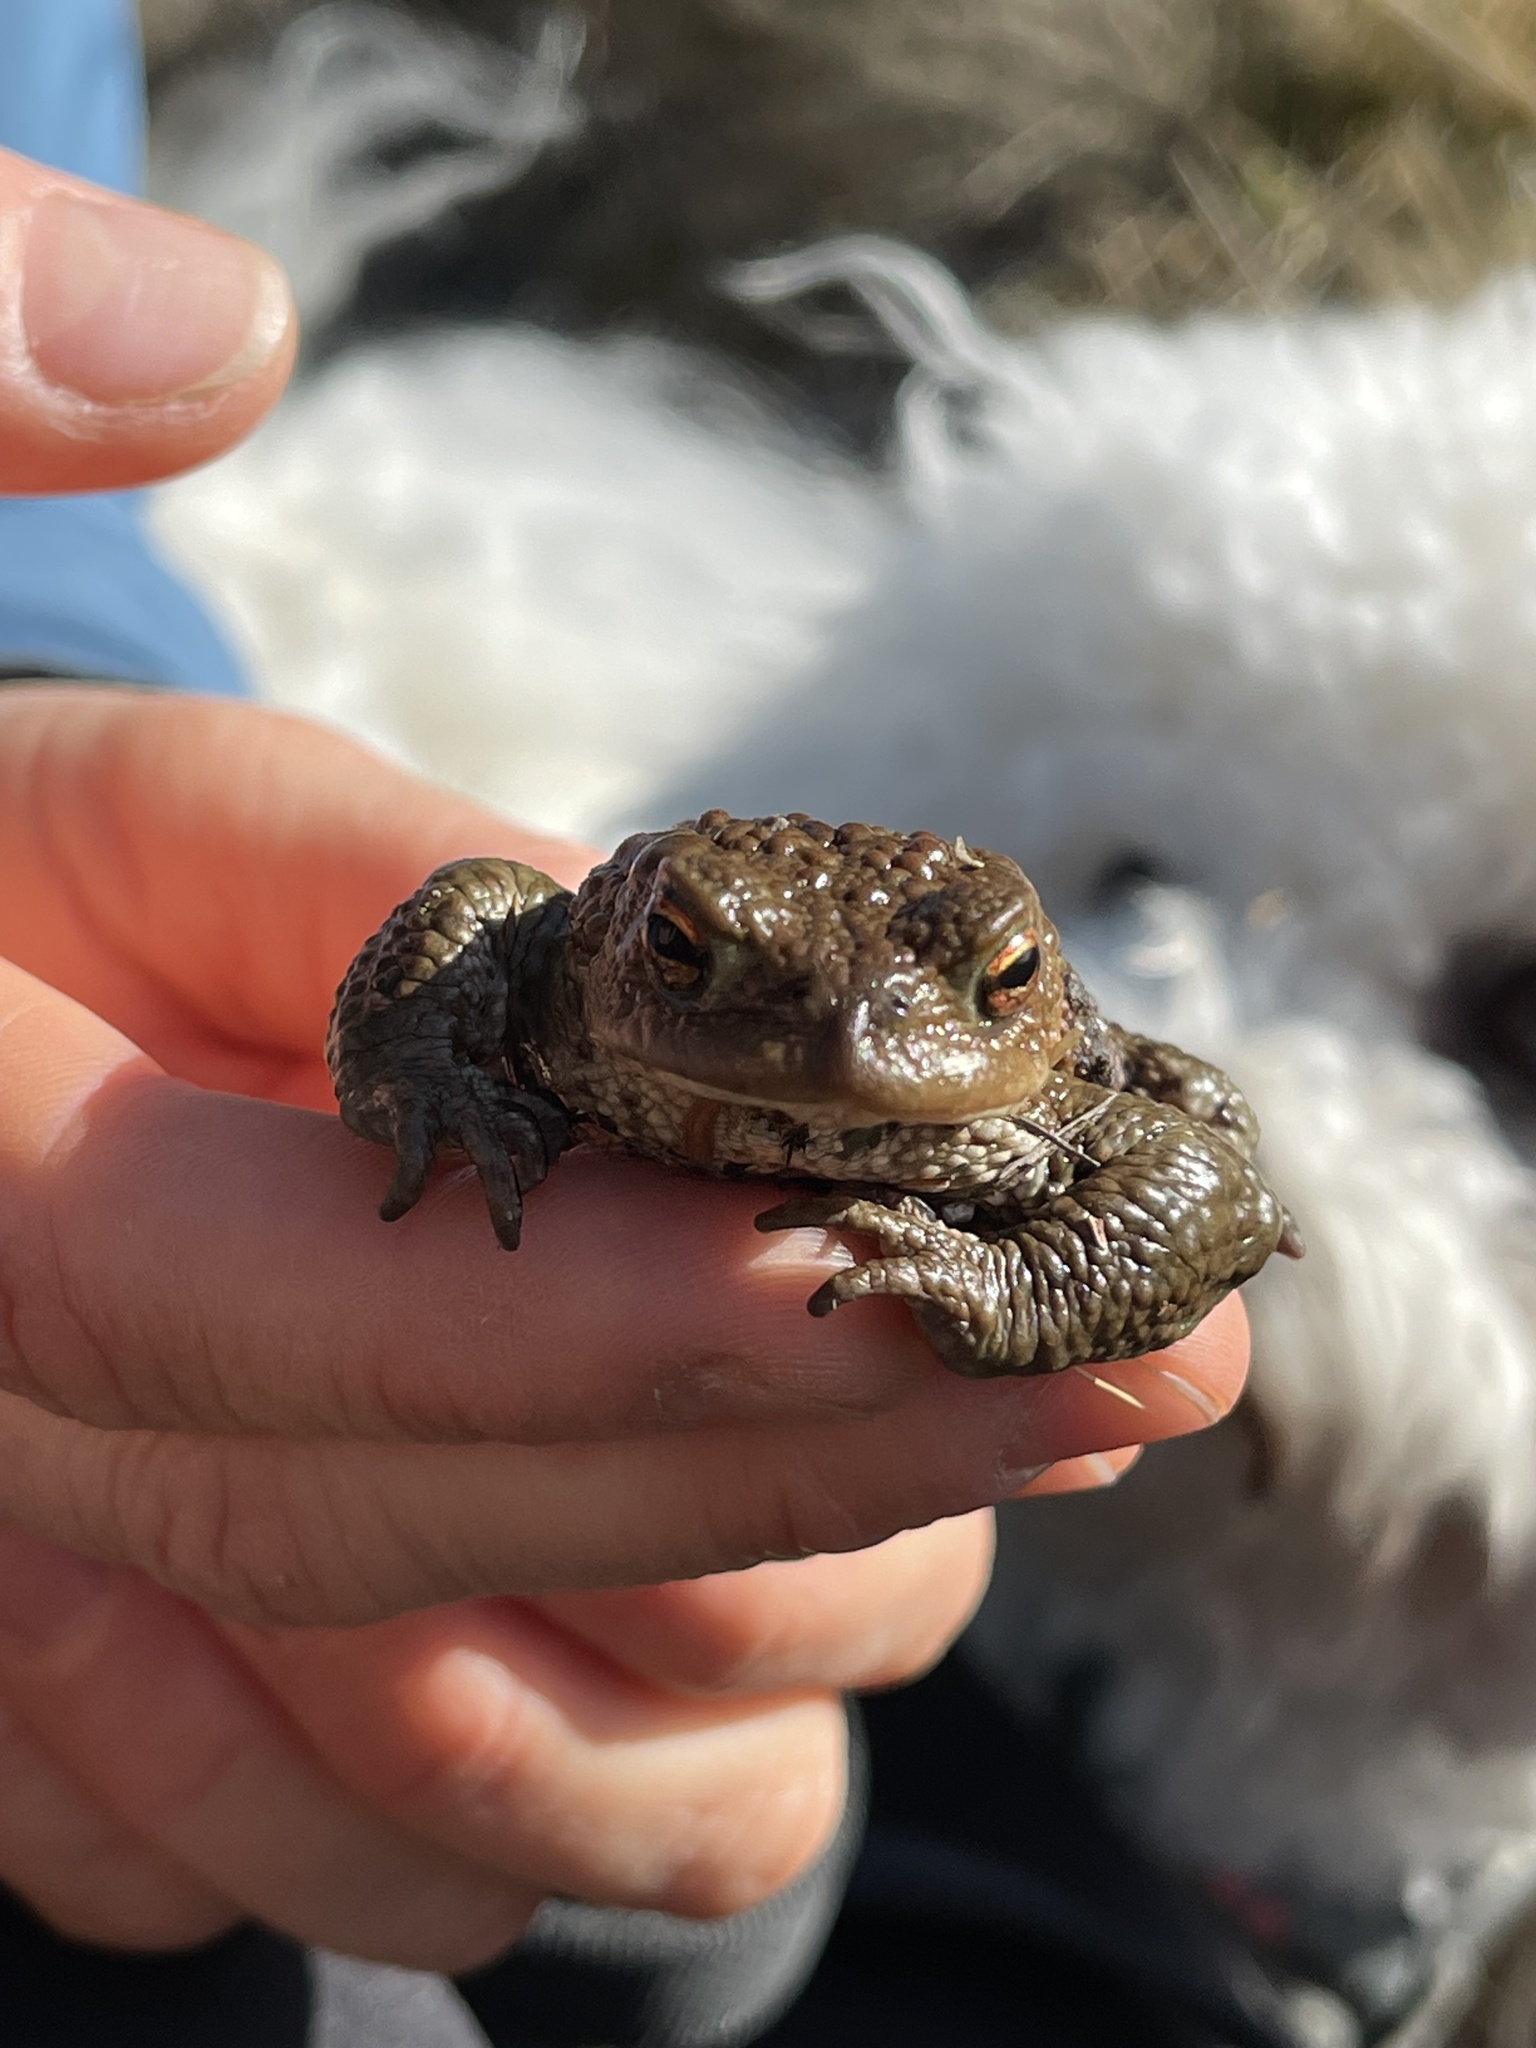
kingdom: Animalia
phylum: Chordata
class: Amphibia
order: Anura
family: Bufonidae
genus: Bufo
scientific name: Bufo bufo
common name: Common toad
